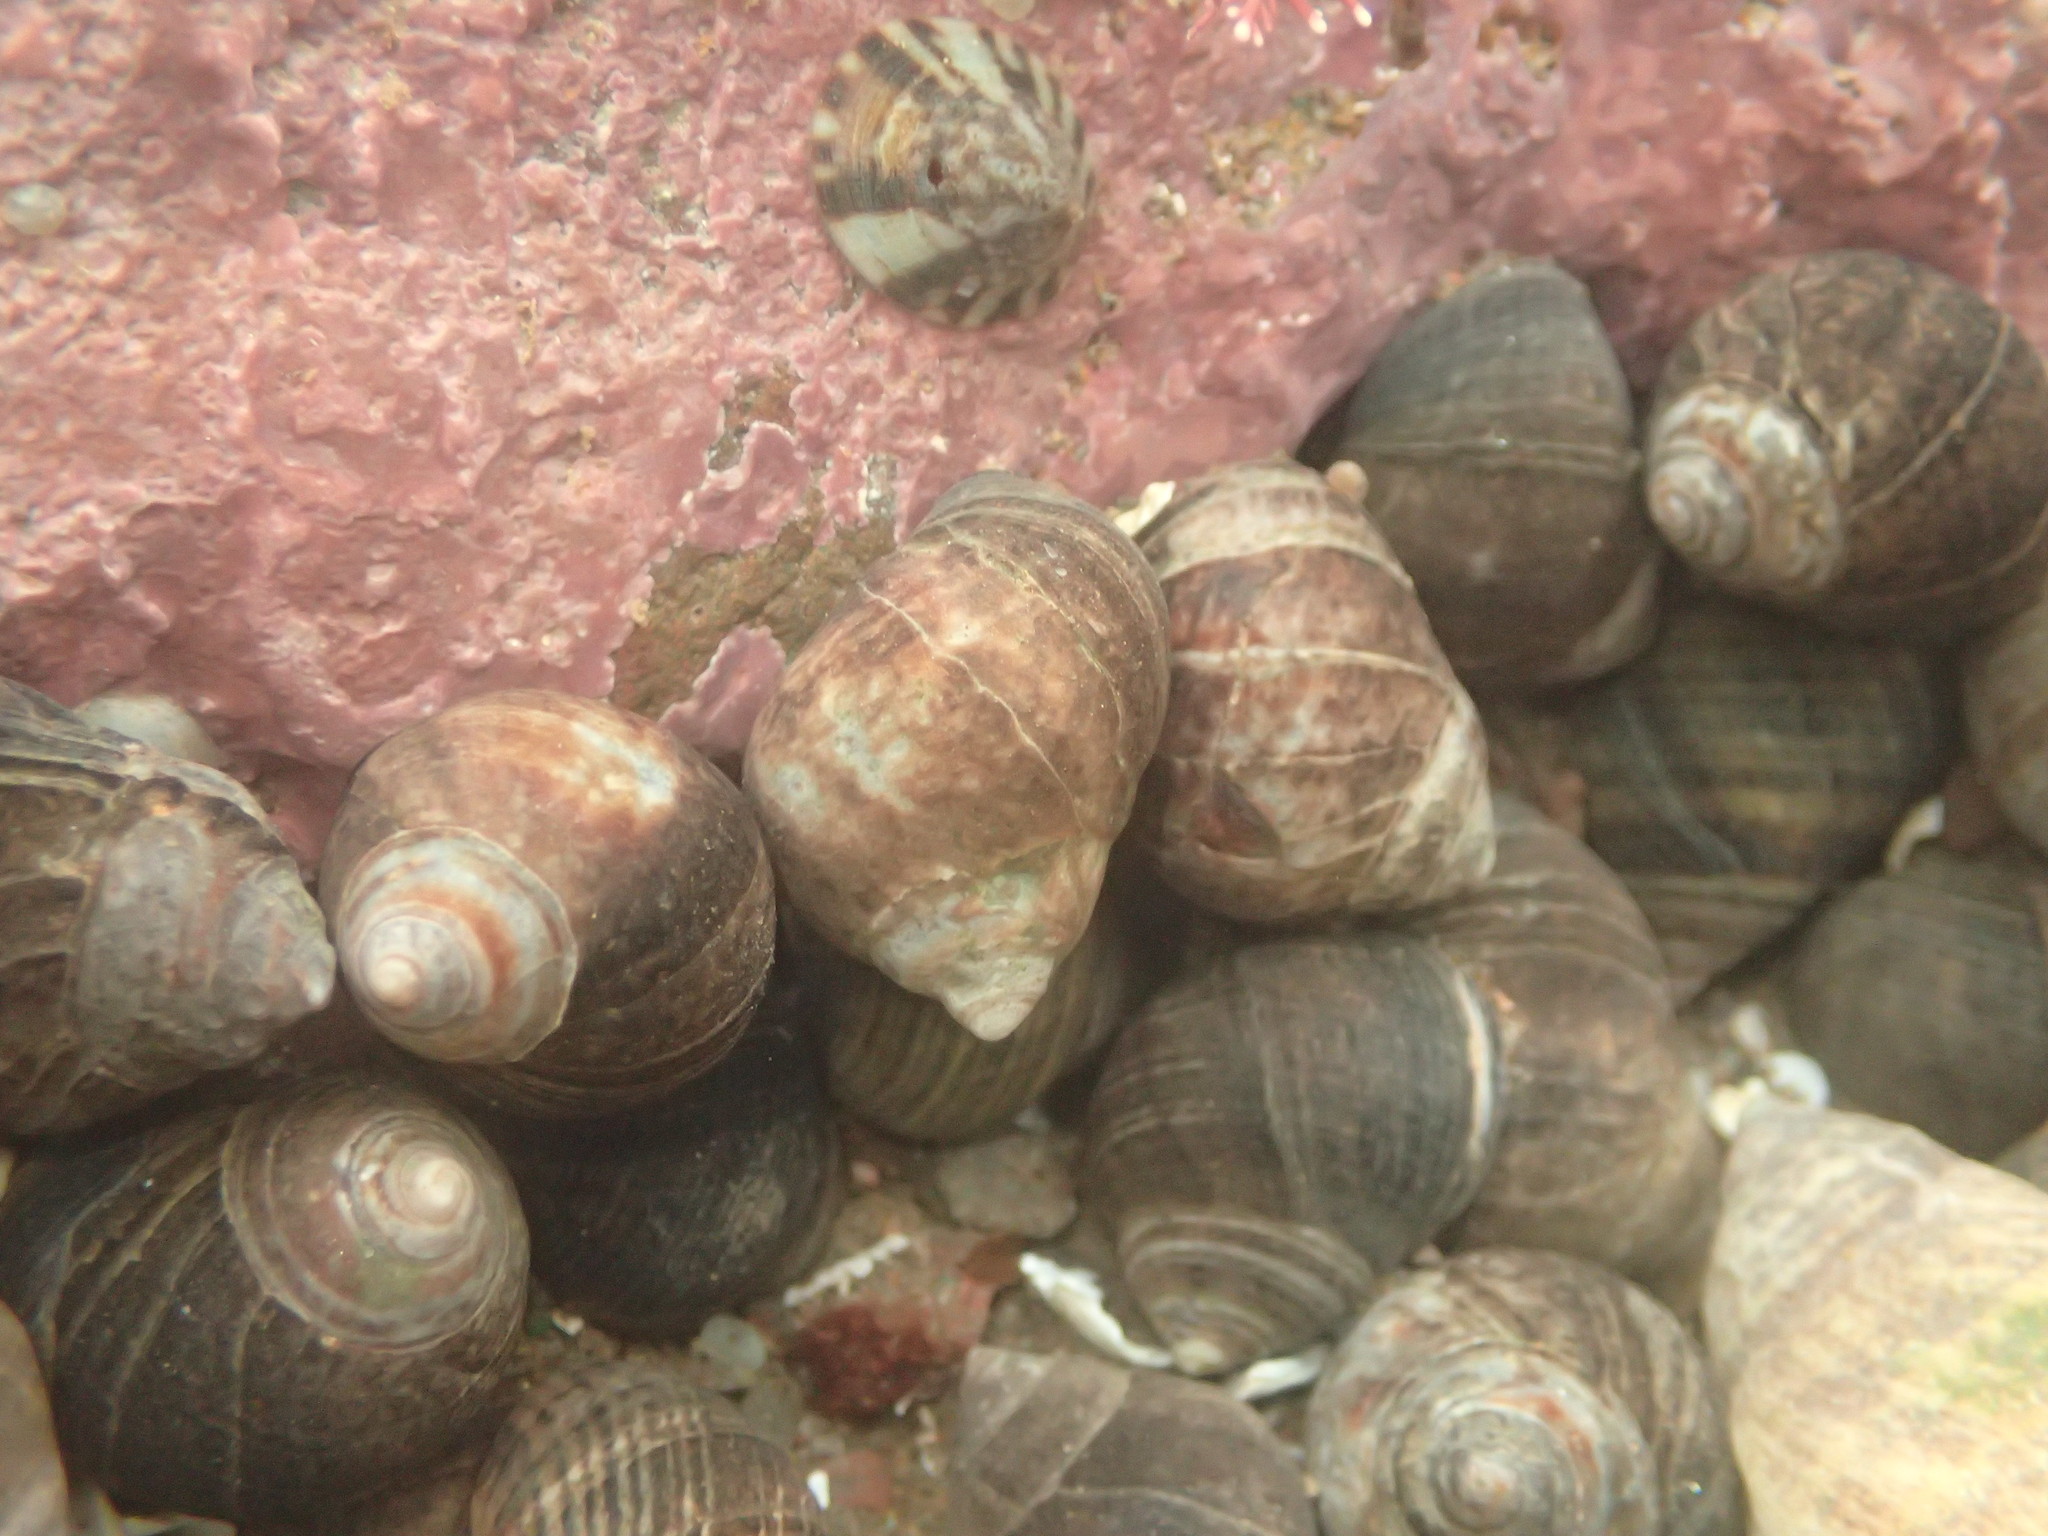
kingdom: Animalia
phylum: Mollusca
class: Gastropoda
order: Littorinimorpha
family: Littorinidae
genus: Littorina
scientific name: Littorina littorea
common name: Common periwinkle
